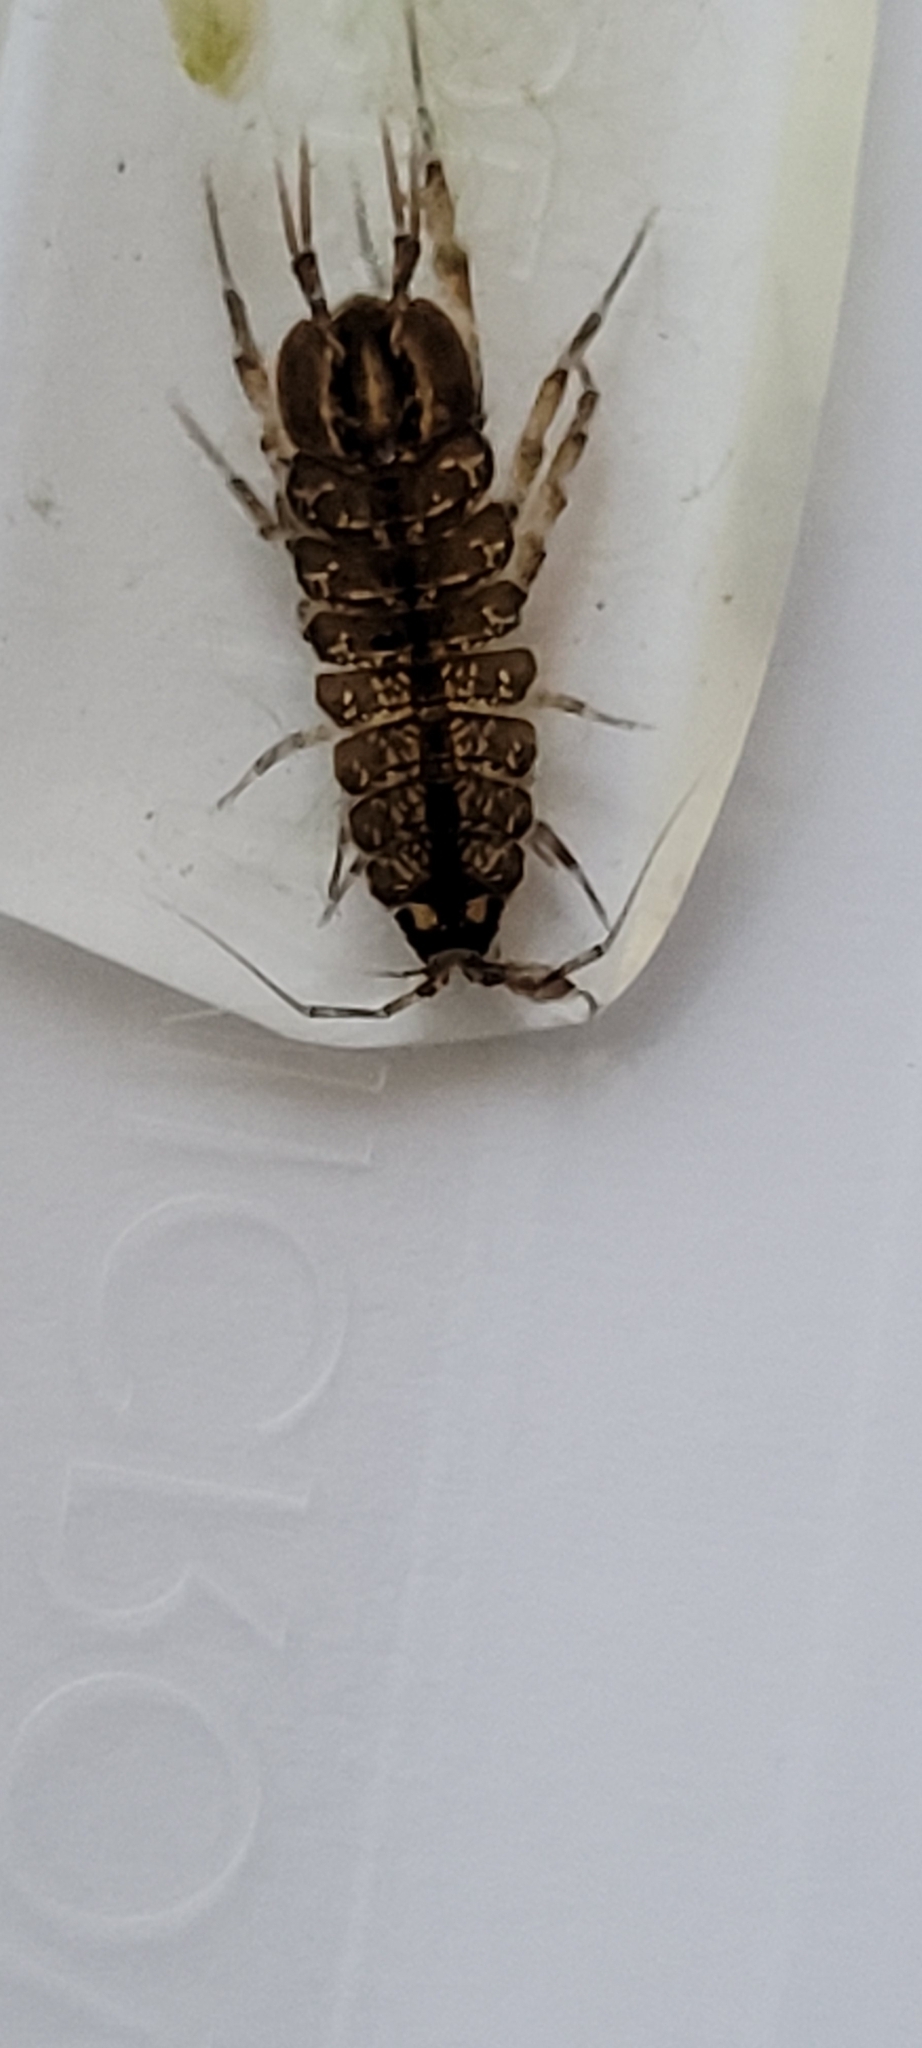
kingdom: Animalia
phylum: Arthropoda
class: Malacostraca
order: Isopoda
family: Asellidae
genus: Asellus
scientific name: Asellus aquaticus
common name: Water hog lice/slaters
